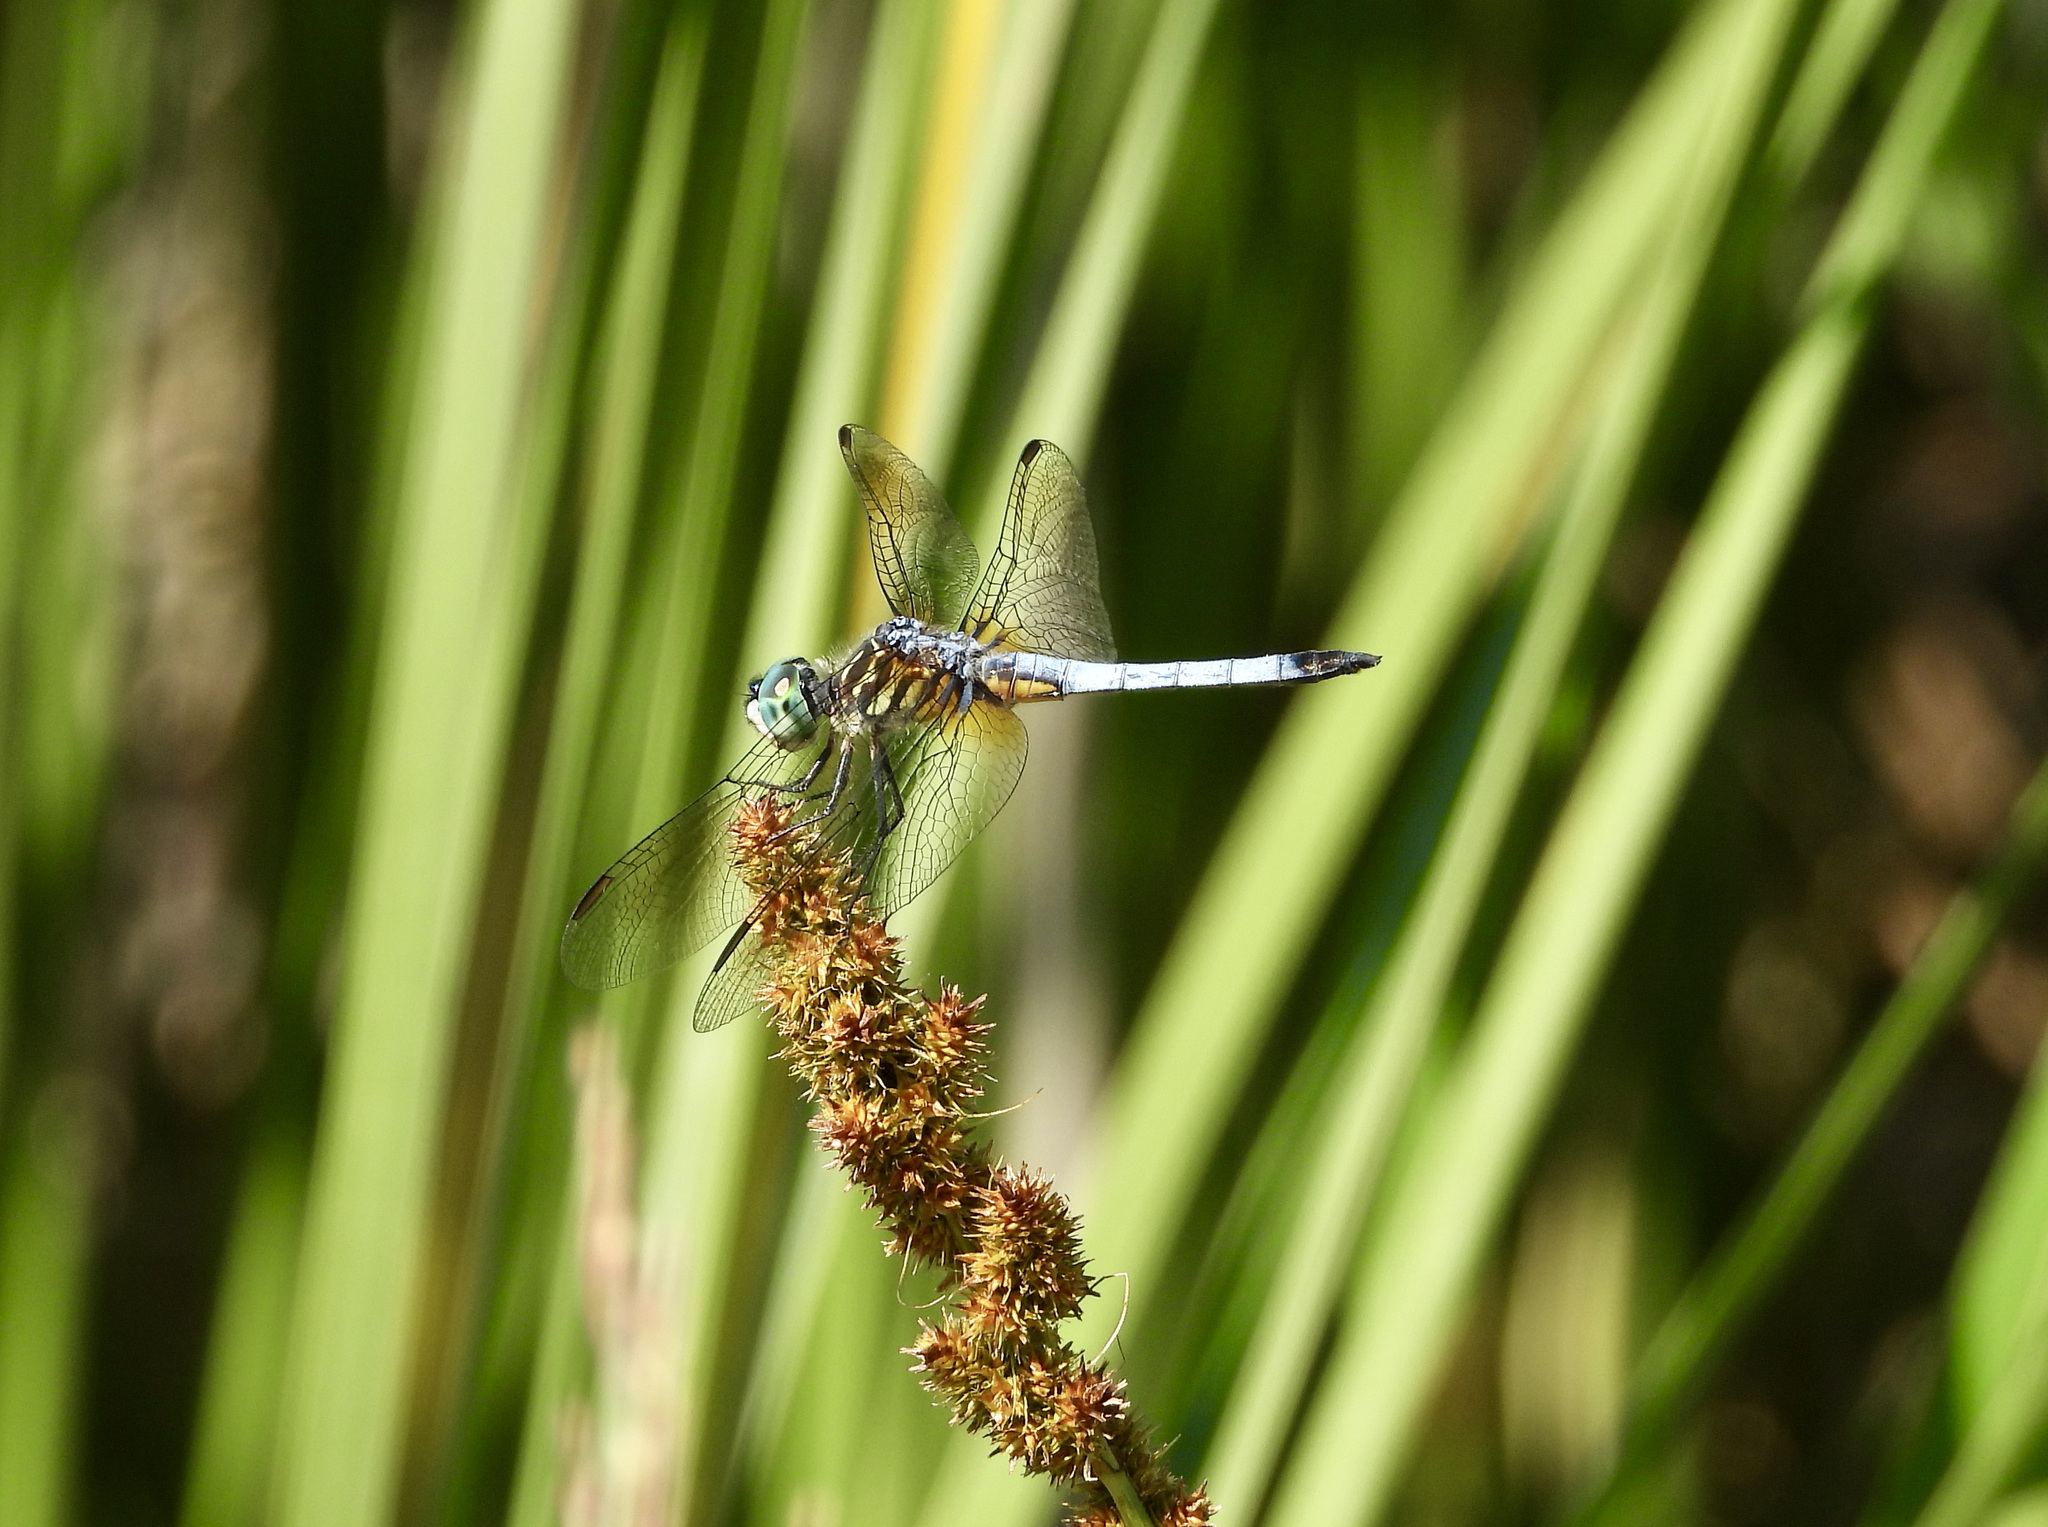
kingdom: Animalia
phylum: Arthropoda
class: Insecta
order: Odonata
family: Libellulidae
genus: Pachydiplax
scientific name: Pachydiplax longipennis
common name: Blue dasher
